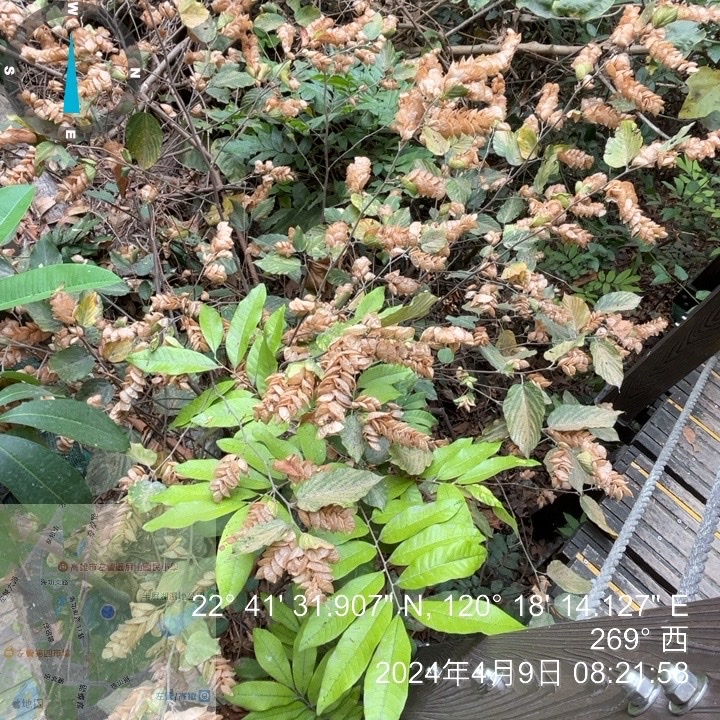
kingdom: Plantae
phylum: Tracheophyta
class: Magnoliopsida
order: Fabales
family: Fabaceae
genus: Flemingia
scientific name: Flemingia strobilifera
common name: Wild hops
